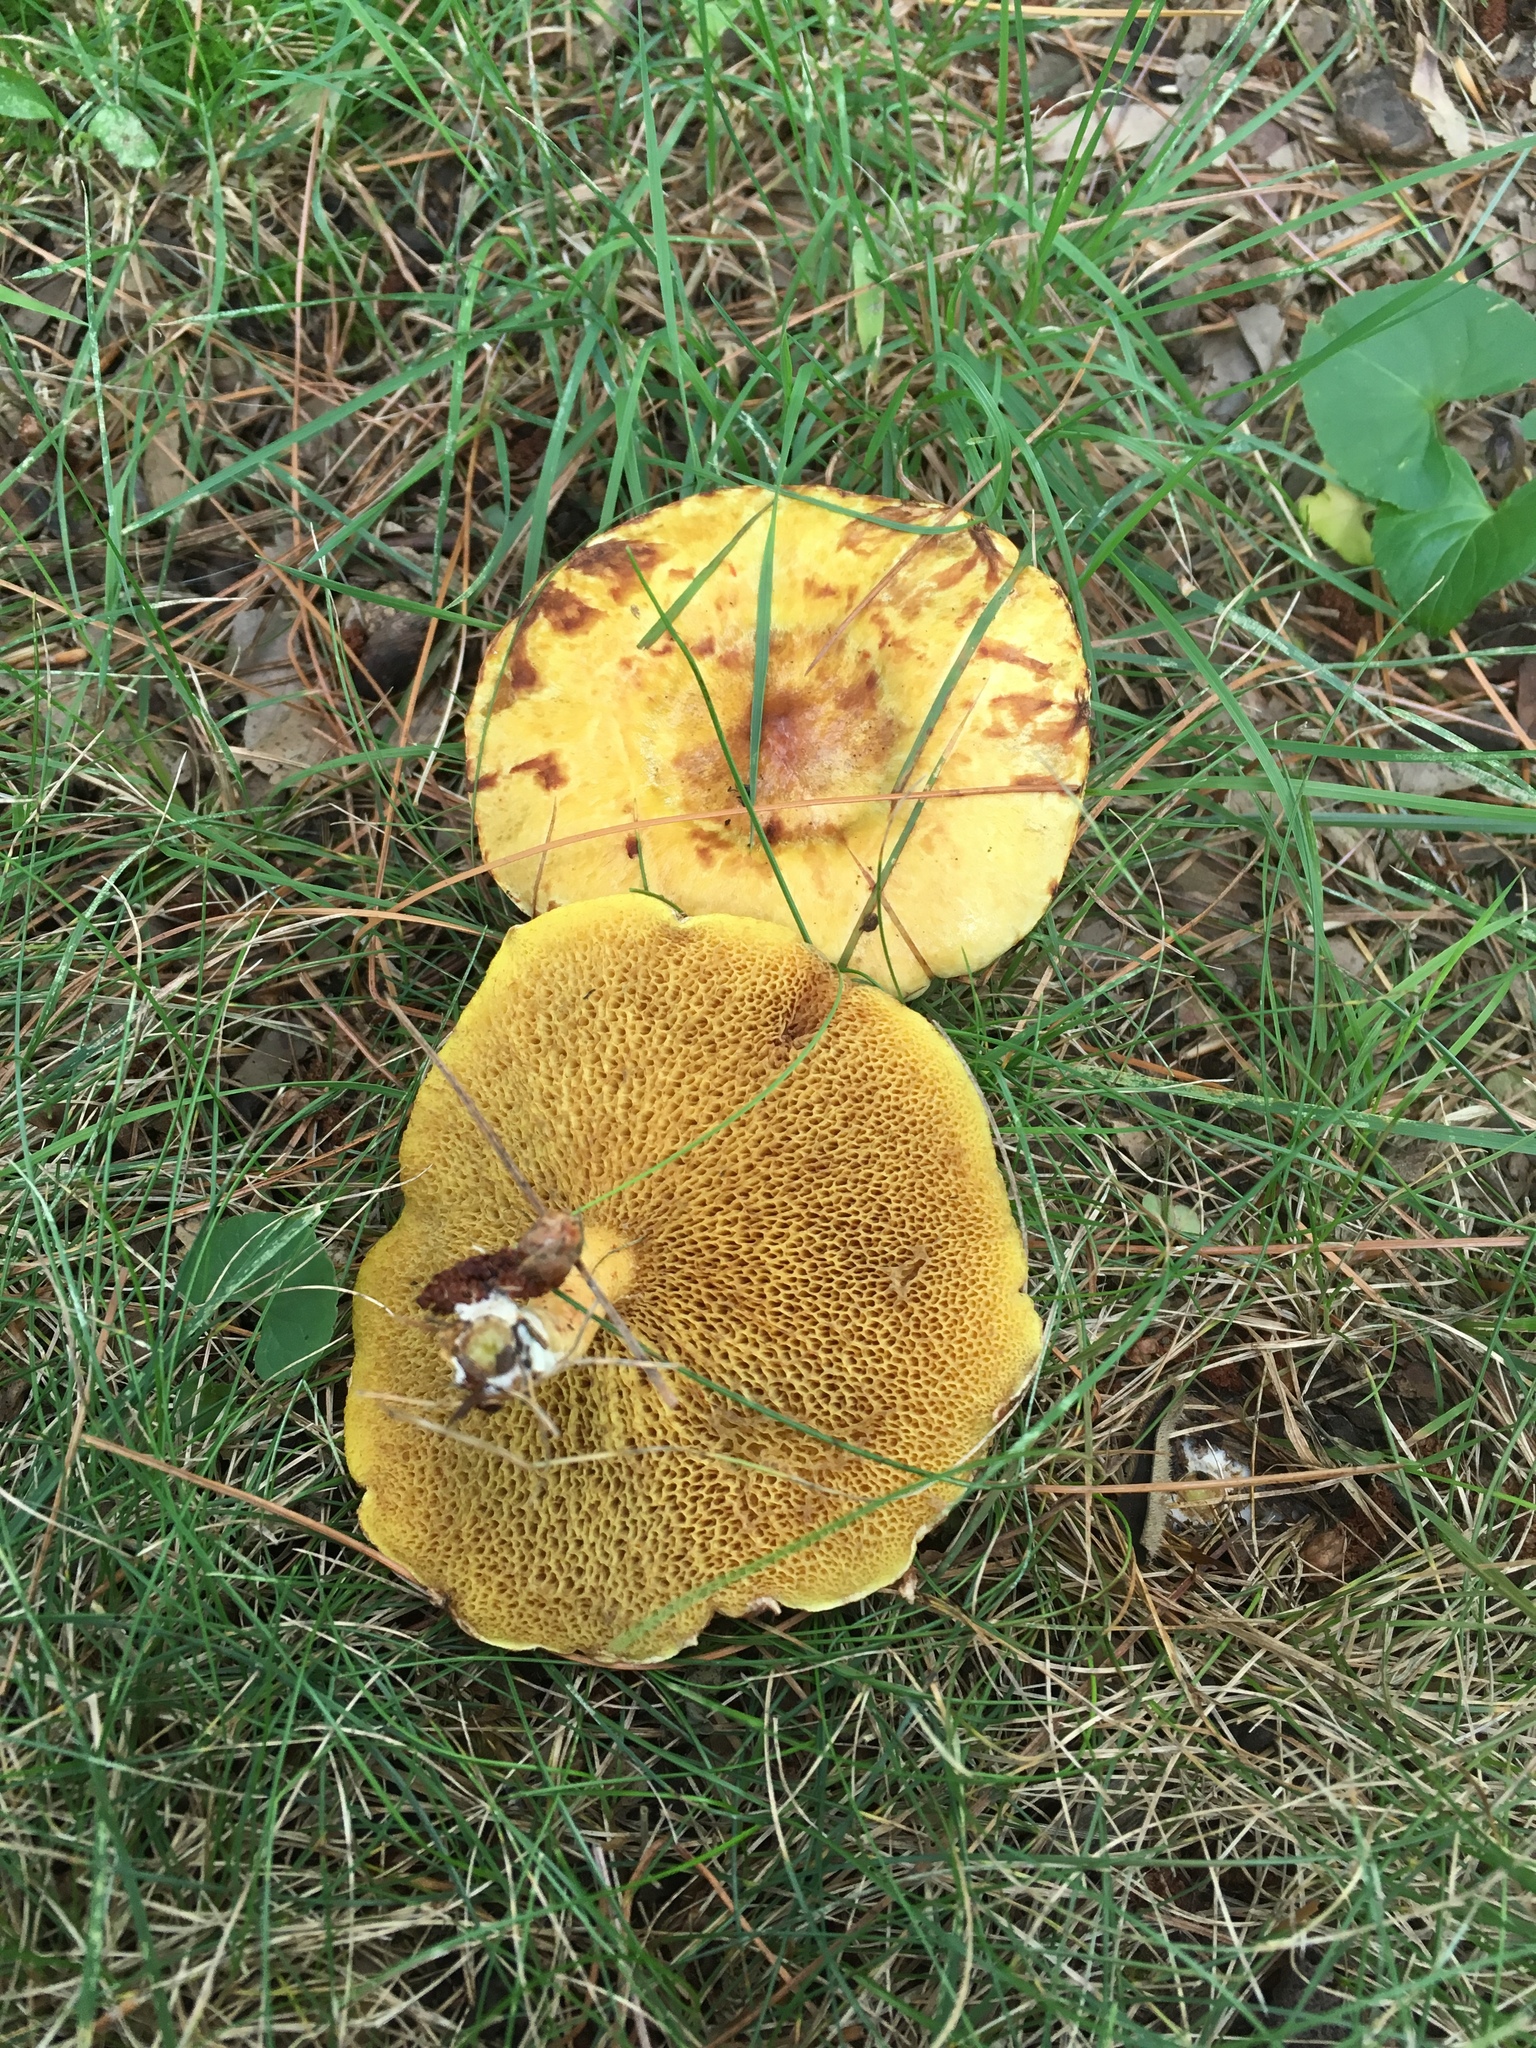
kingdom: Fungi
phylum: Basidiomycota
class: Agaricomycetes
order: Boletales
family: Suillaceae
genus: Suillus
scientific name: Suillus americanus
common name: Chicken fat mushroom
